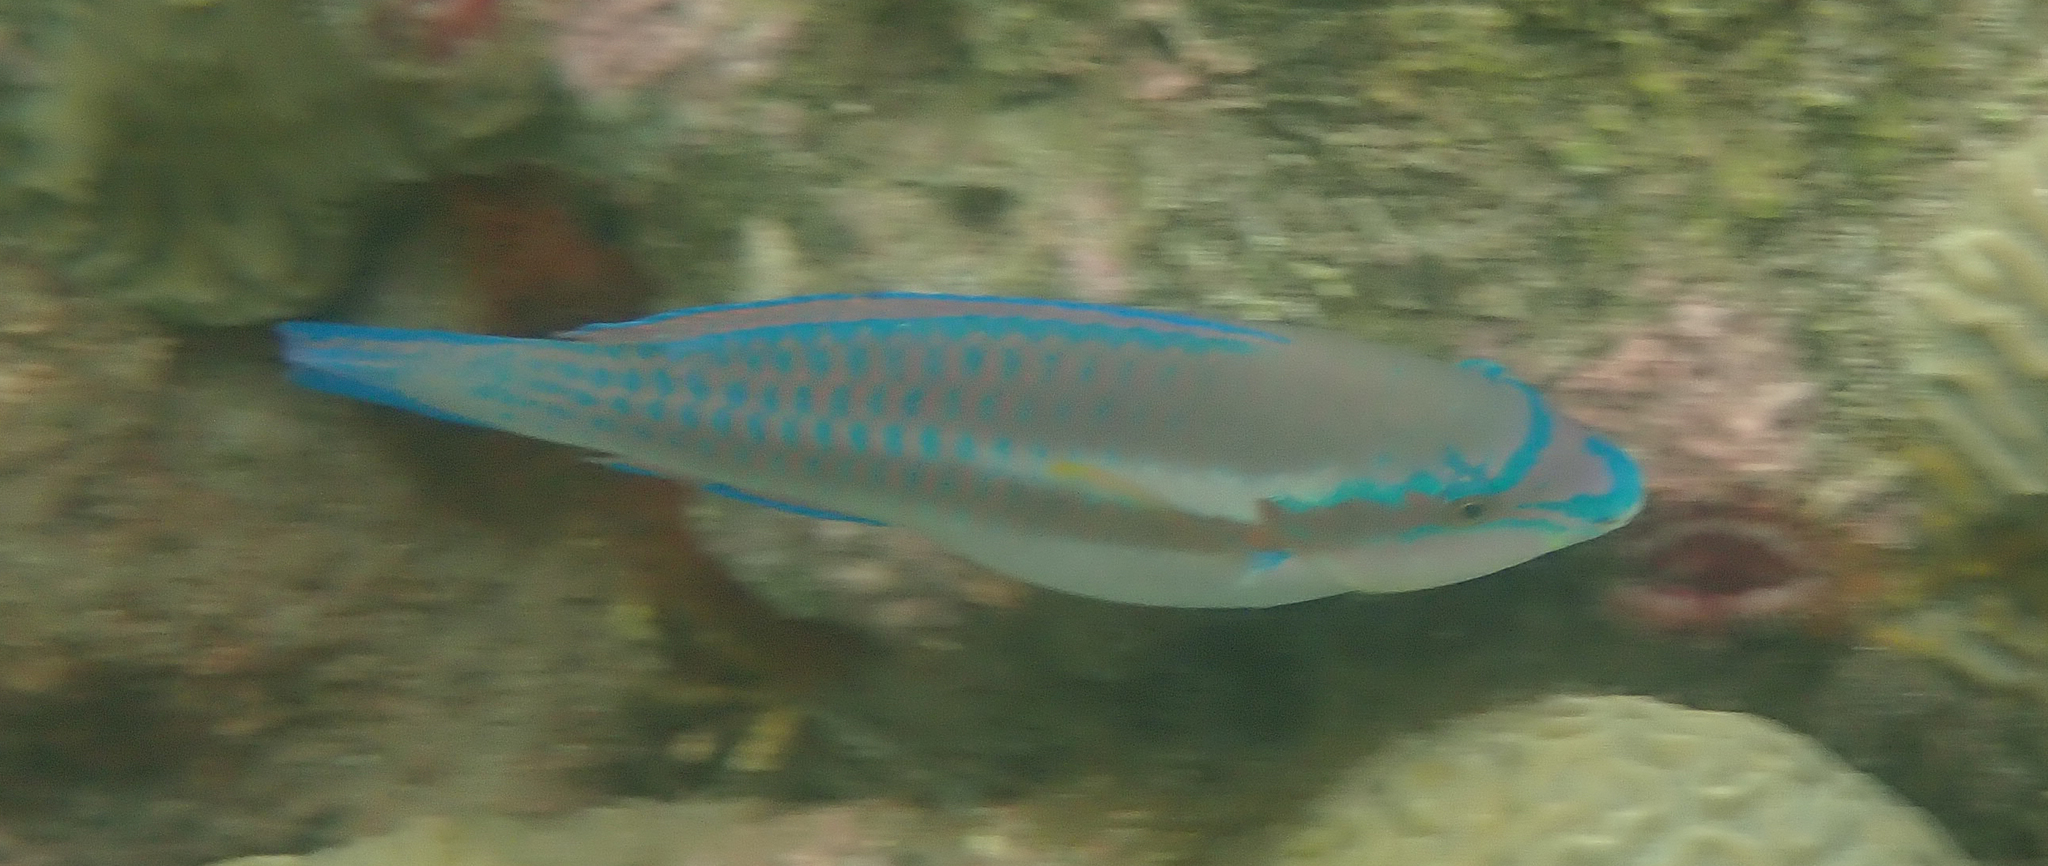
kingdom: Animalia
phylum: Chordata
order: Perciformes
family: Scaridae
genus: Scarus
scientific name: Scarus iseri
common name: Striped parrotfish
